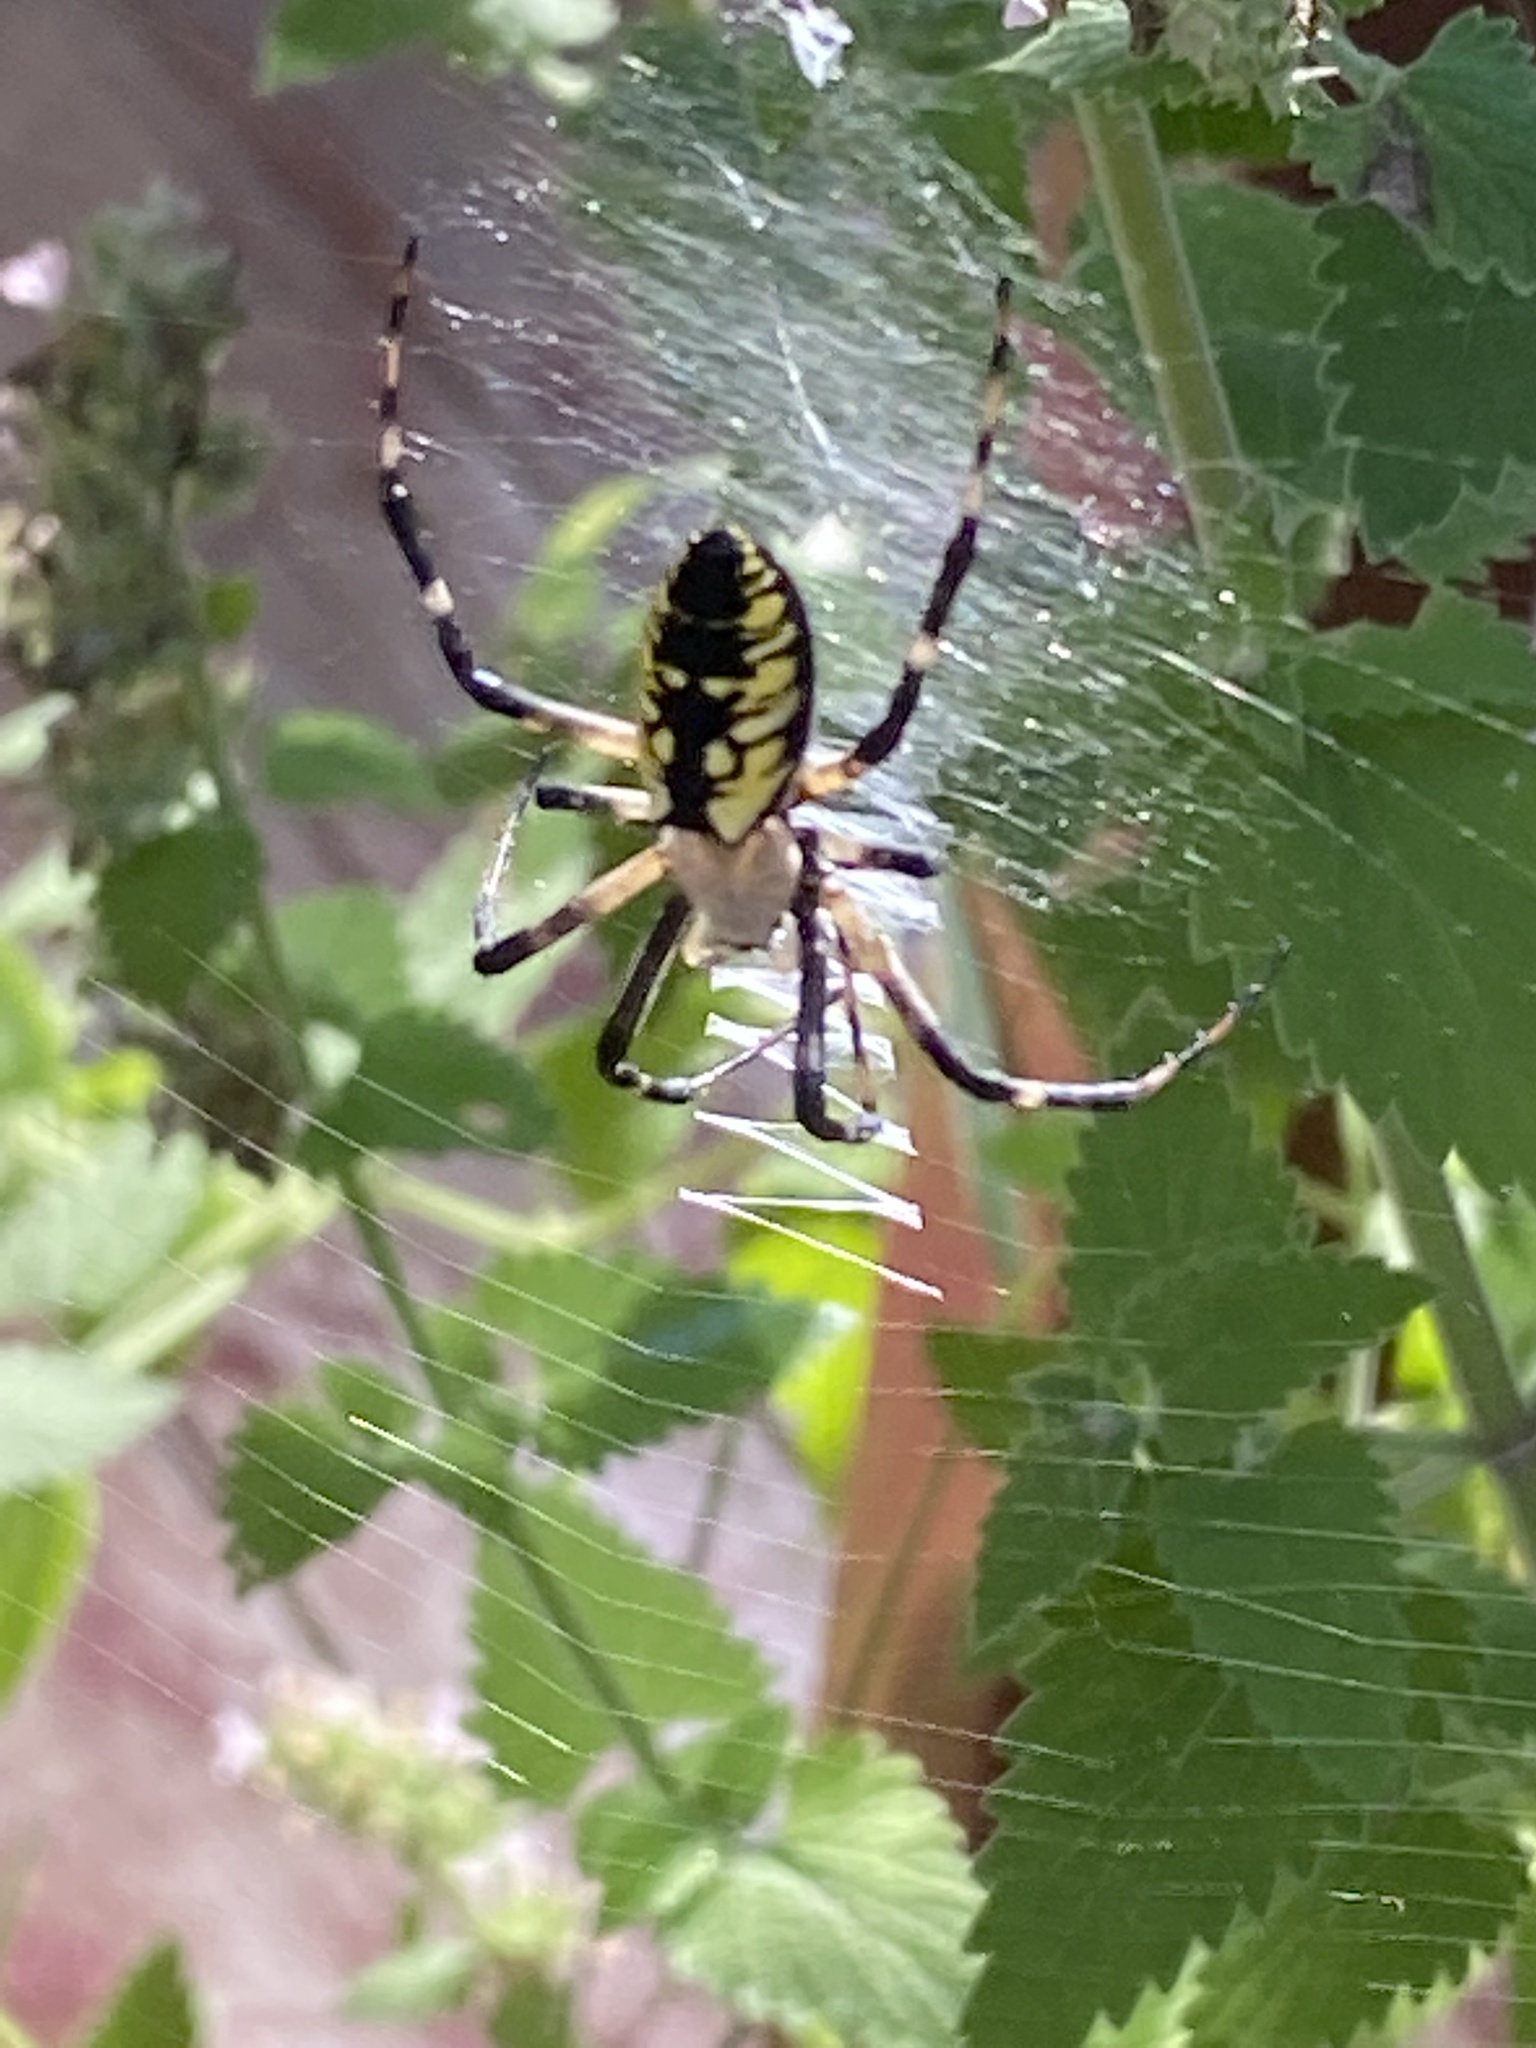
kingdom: Animalia
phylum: Arthropoda
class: Arachnida
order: Araneae
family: Araneidae
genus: Argiope
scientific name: Argiope aurantia
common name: Orb weavers
